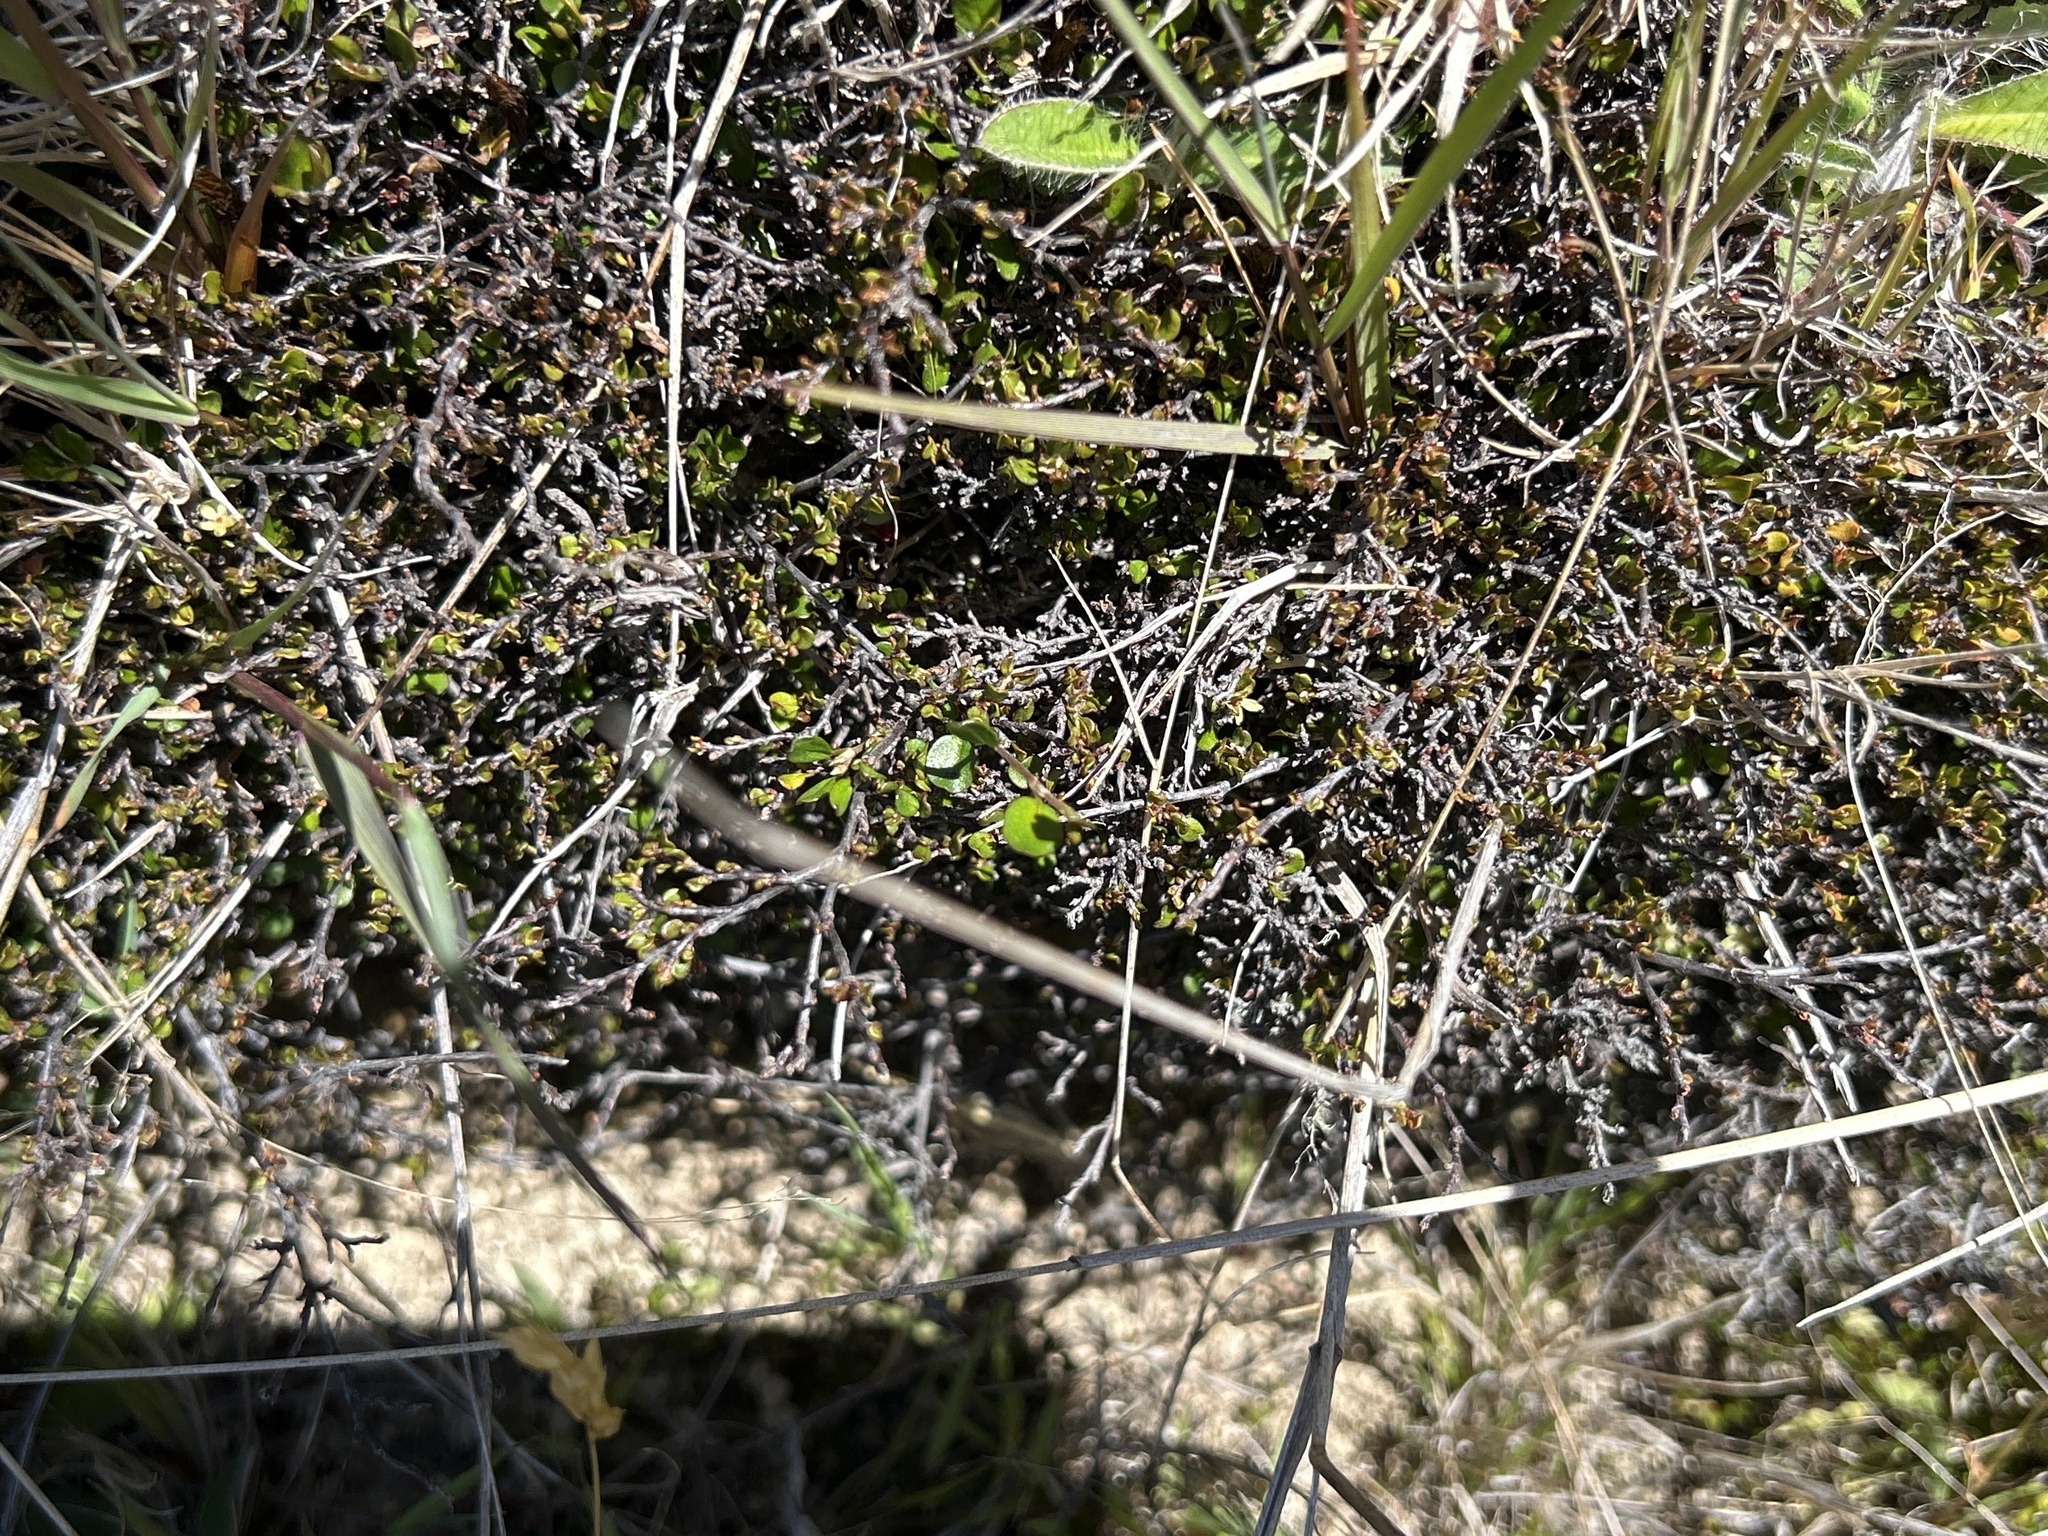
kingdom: Plantae
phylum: Tracheophyta
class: Magnoliopsida
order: Caryophyllales
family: Polygonaceae
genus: Muehlenbeckia
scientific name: Muehlenbeckia axillaris
